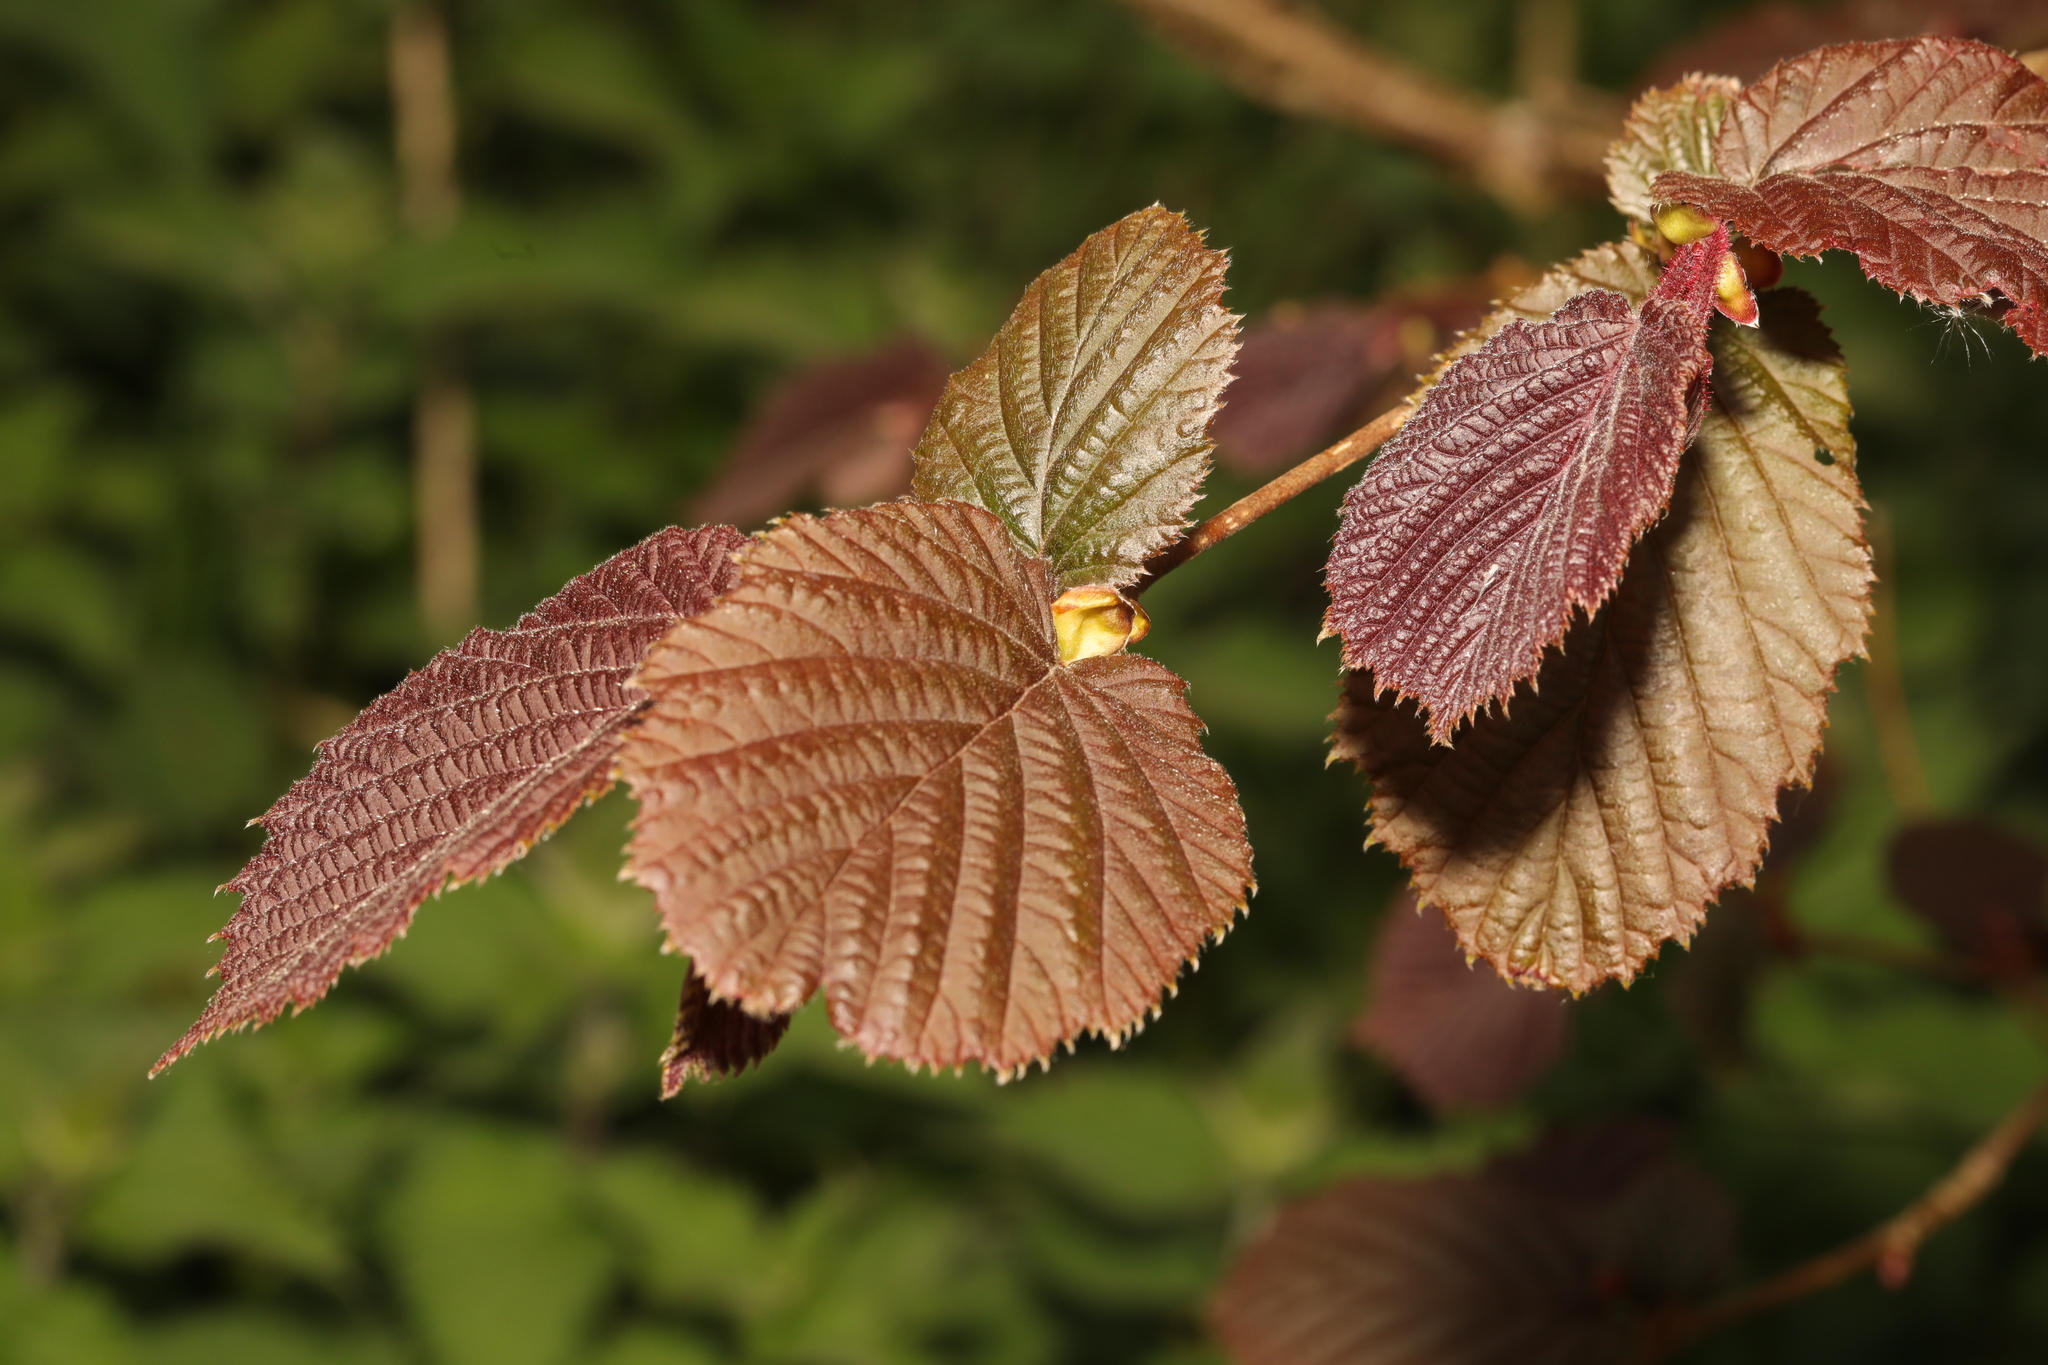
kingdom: Plantae
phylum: Tracheophyta
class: Magnoliopsida
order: Fagales
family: Betulaceae
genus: Corylus
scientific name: Corylus avellana
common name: European hazel
